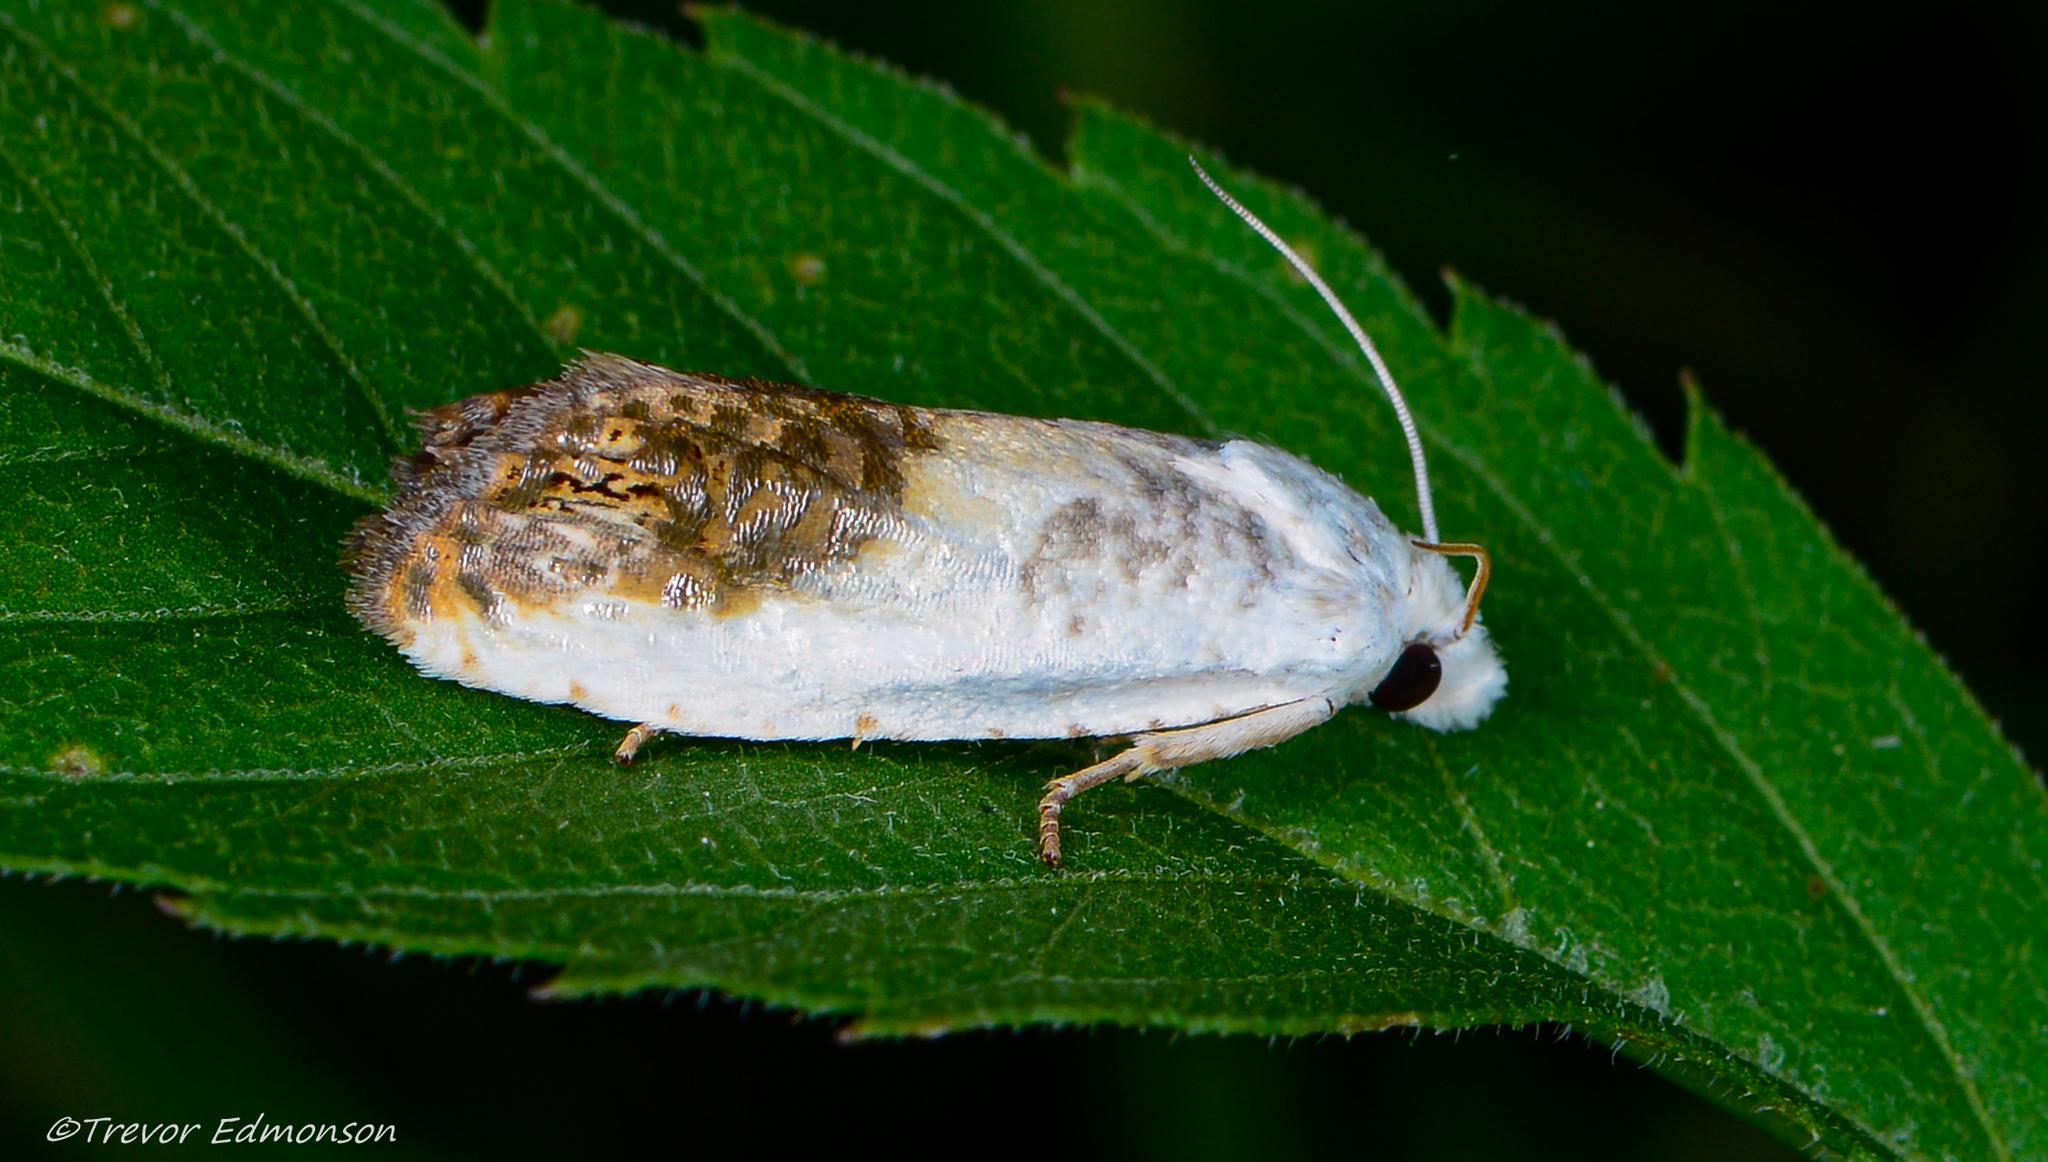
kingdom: Animalia
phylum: Arthropoda
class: Insecta
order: Lepidoptera
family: Tortricidae
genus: Eucosma
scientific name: Eucosma giganteana
